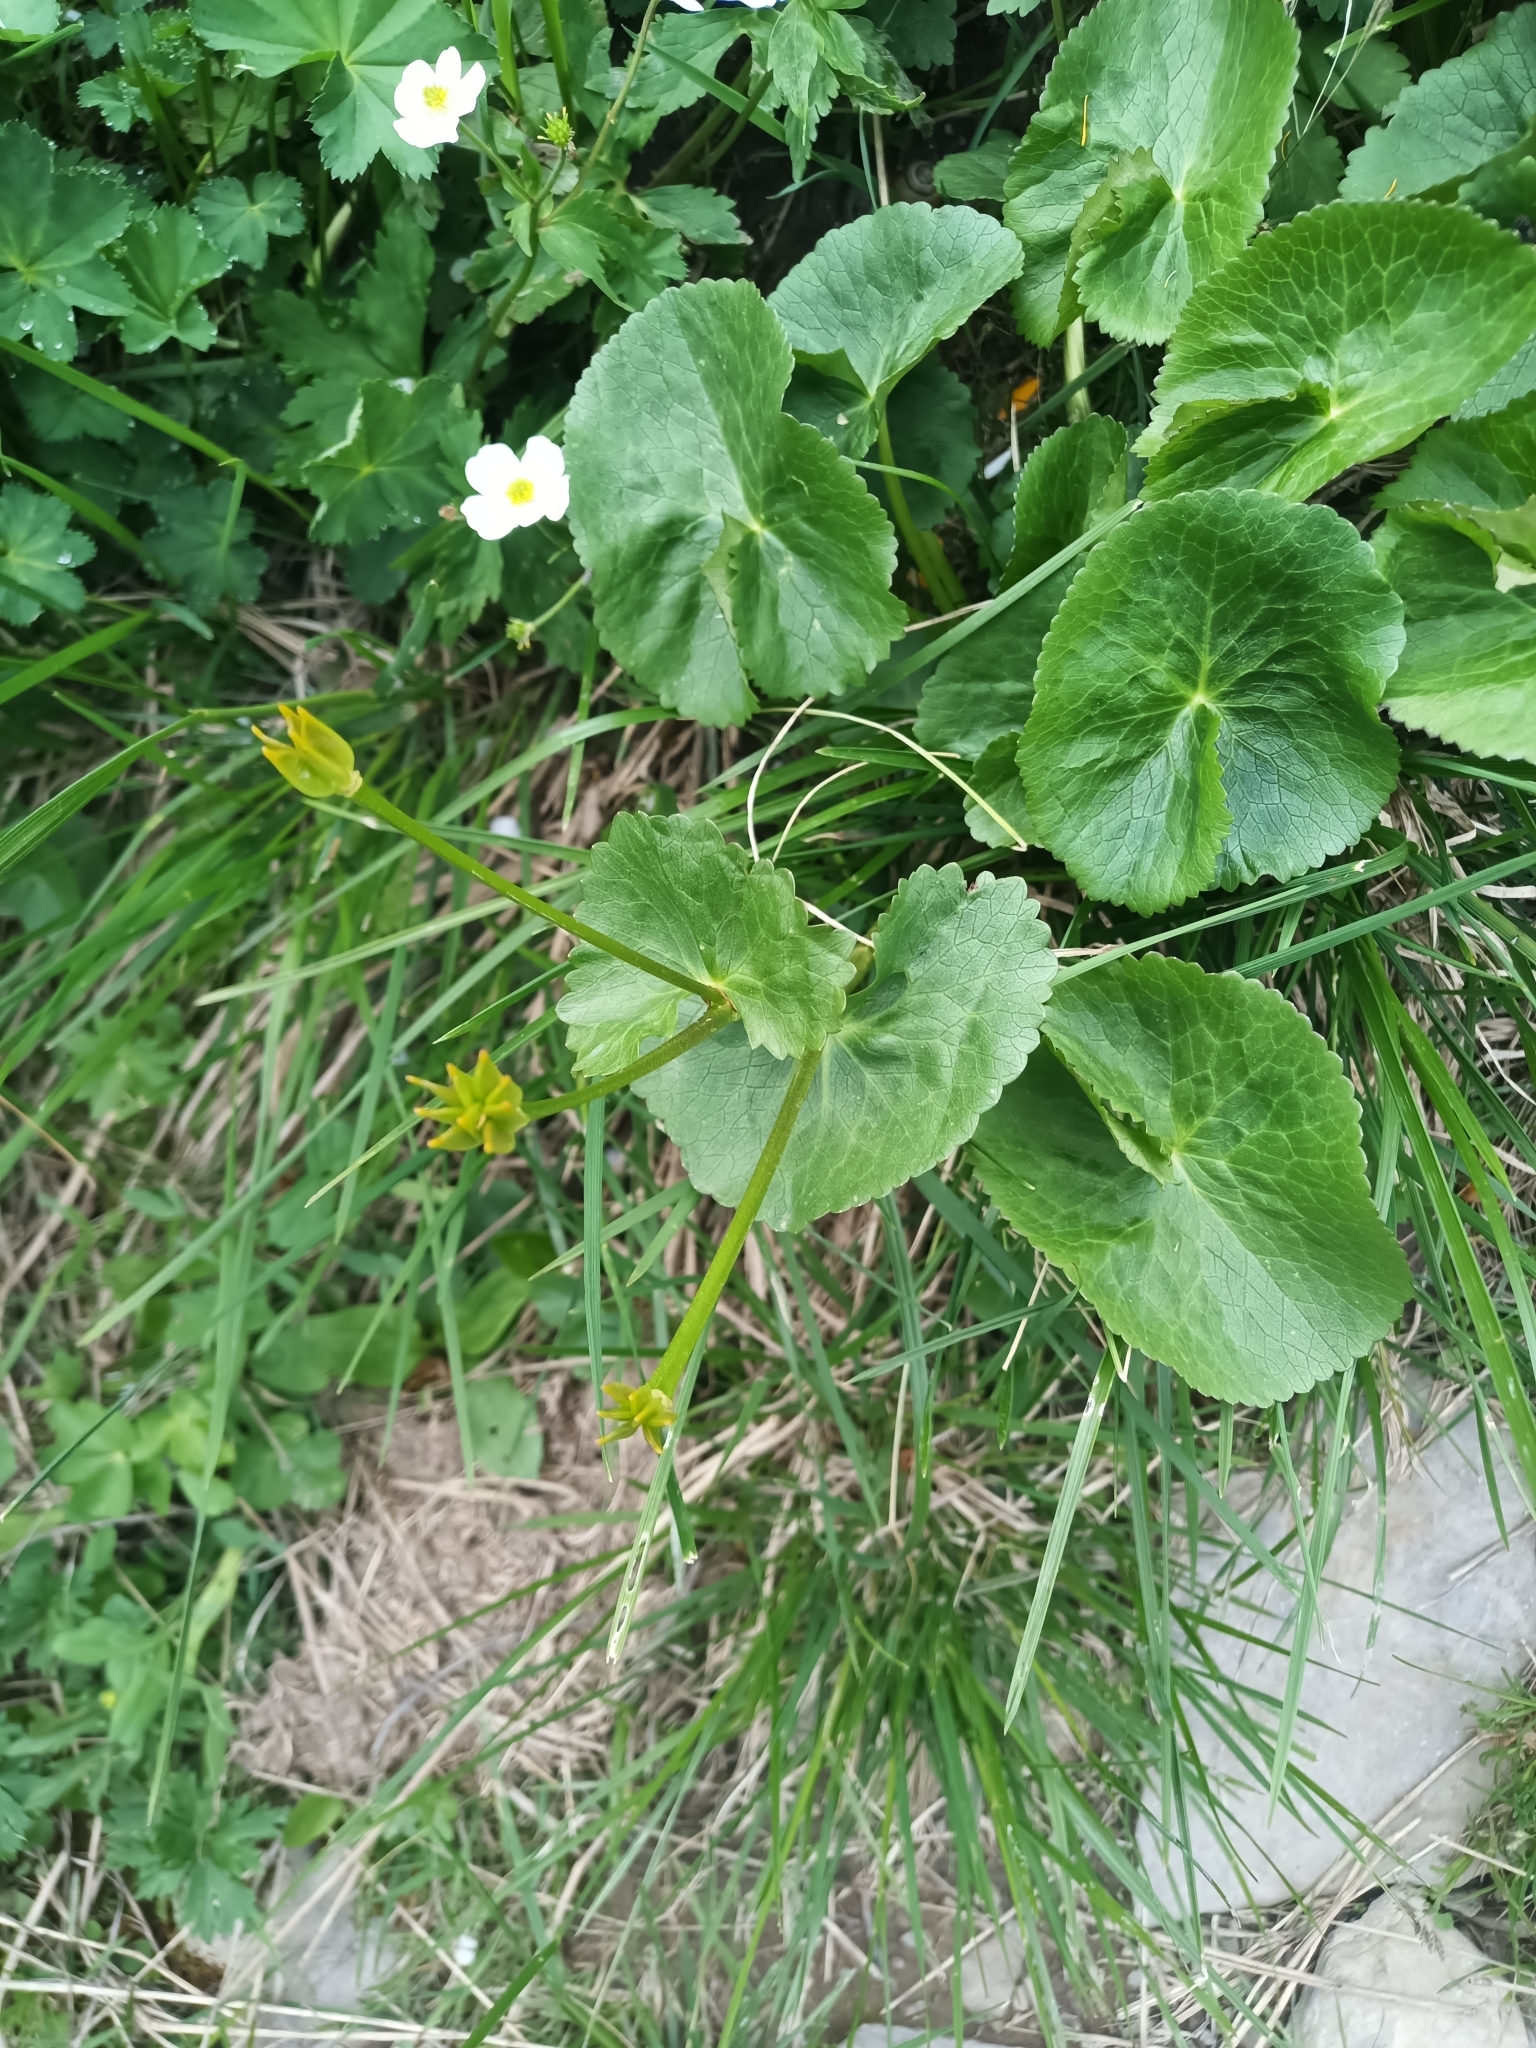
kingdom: Plantae
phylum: Tracheophyta
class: Magnoliopsida
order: Ranunculales
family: Ranunculaceae
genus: Caltha
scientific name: Caltha palustris
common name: Marsh marigold
